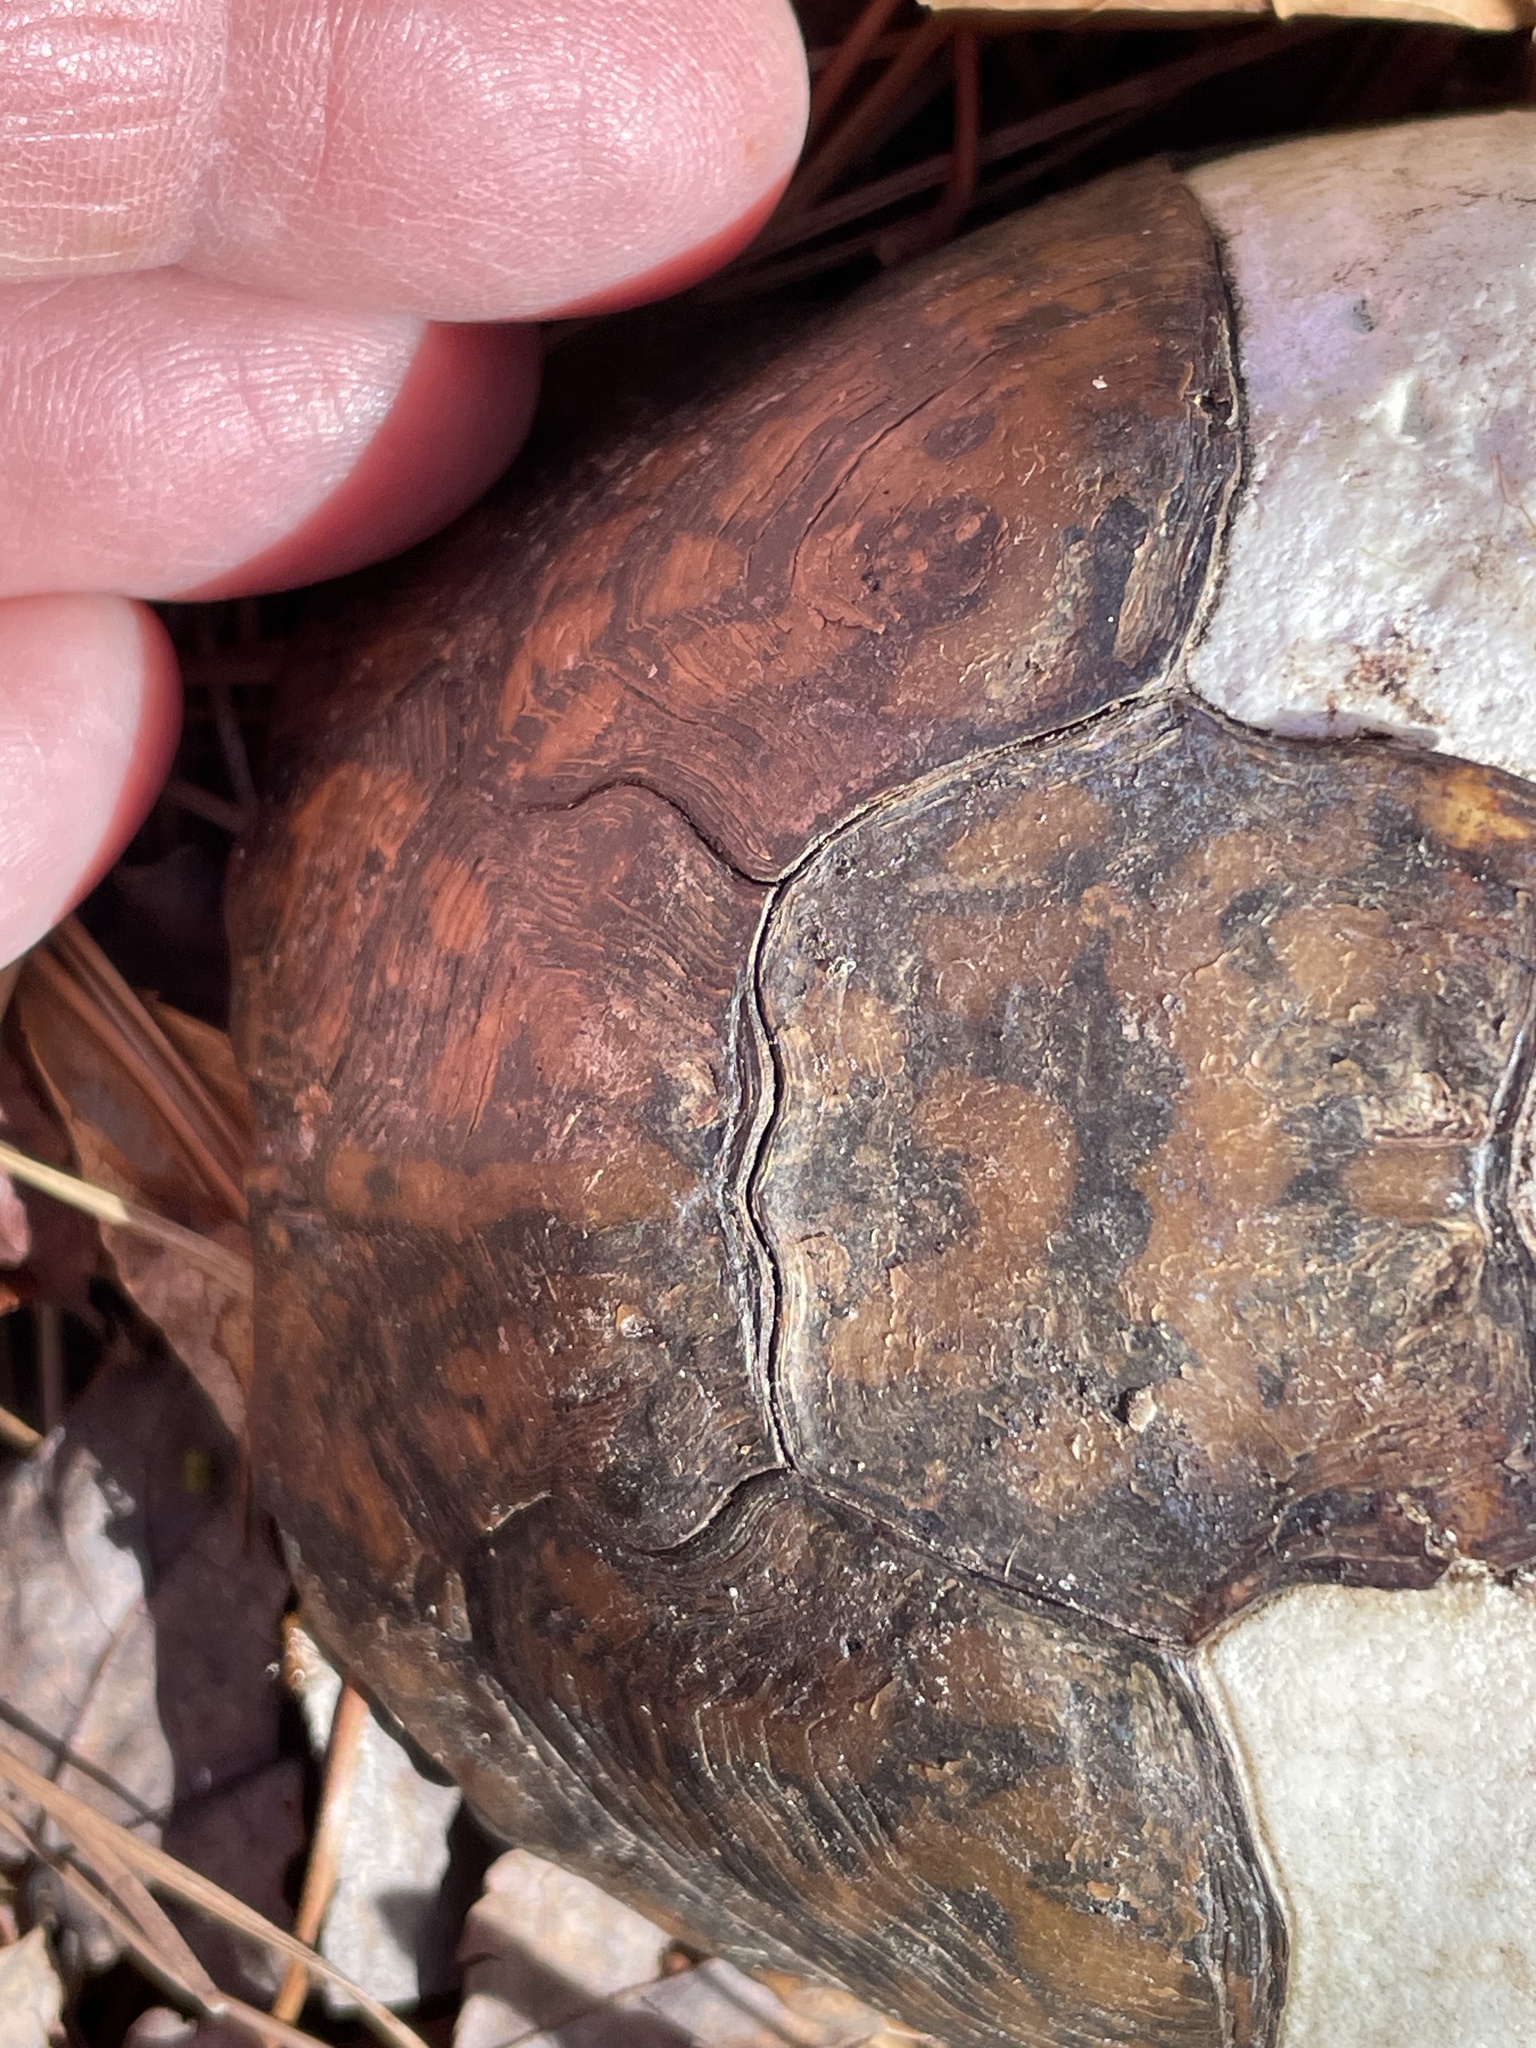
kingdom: Animalia
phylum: Chordata
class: Testudines
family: Emydidae
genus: Terrapene
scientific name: Terrapene carolina
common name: Common box turtle
